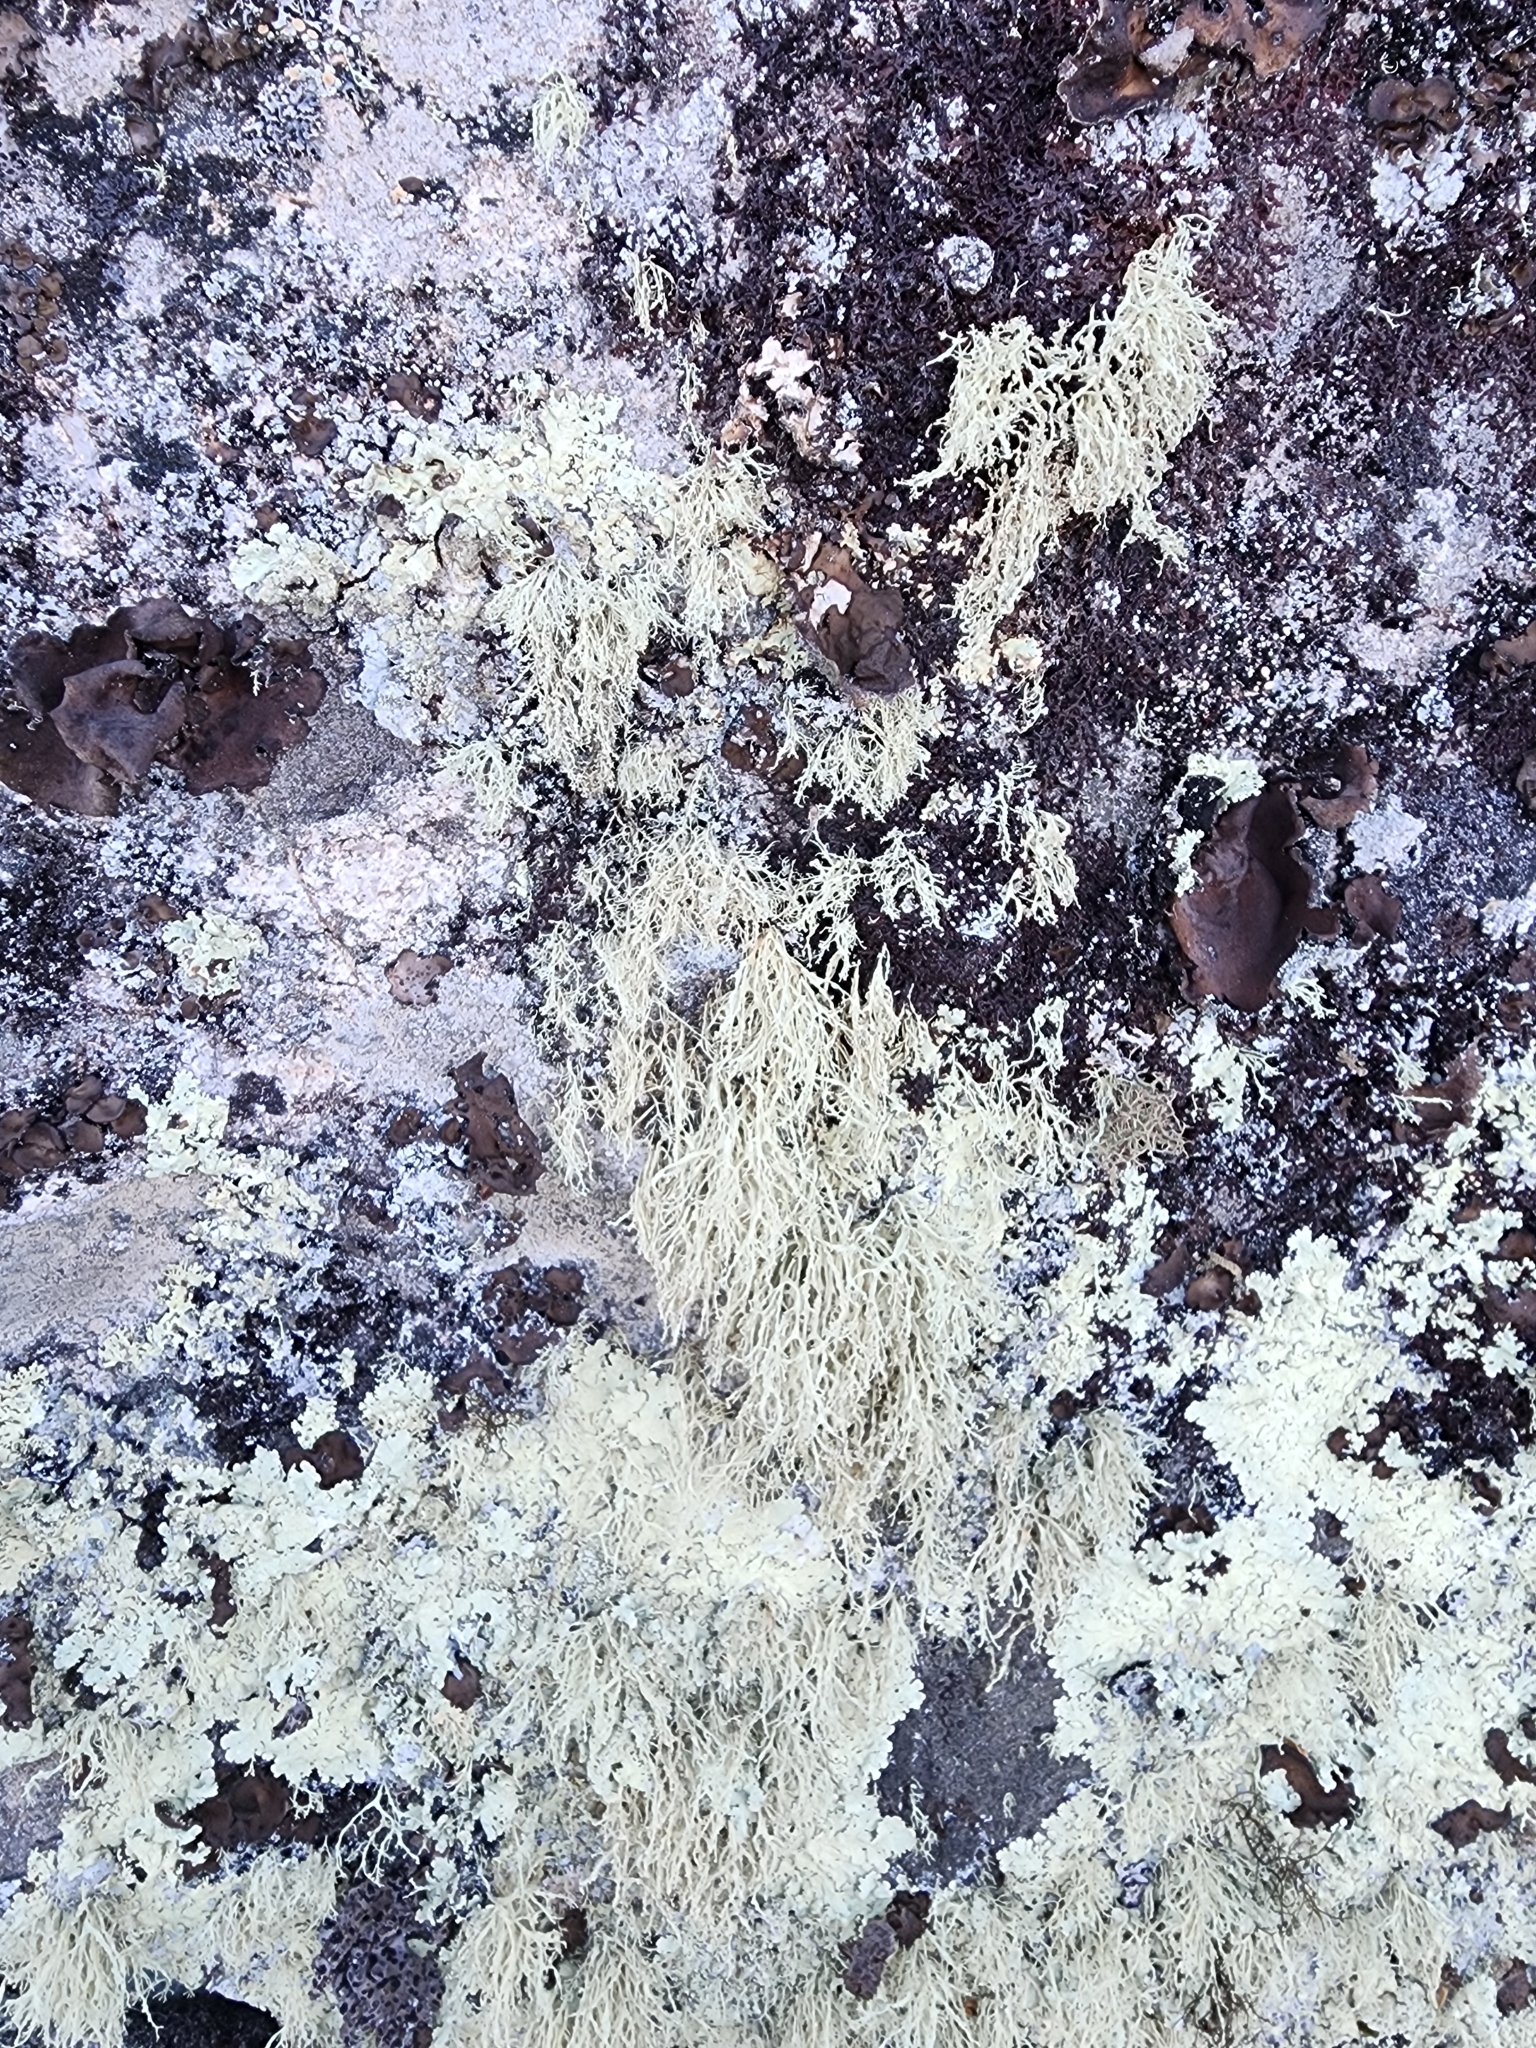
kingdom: Fungi
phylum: Ascomycota
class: Lecanoromycetes
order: Lecanorales
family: Ramalinaceae
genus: Ramalina
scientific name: Ramalina intermedia
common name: Rock bushy lichen
